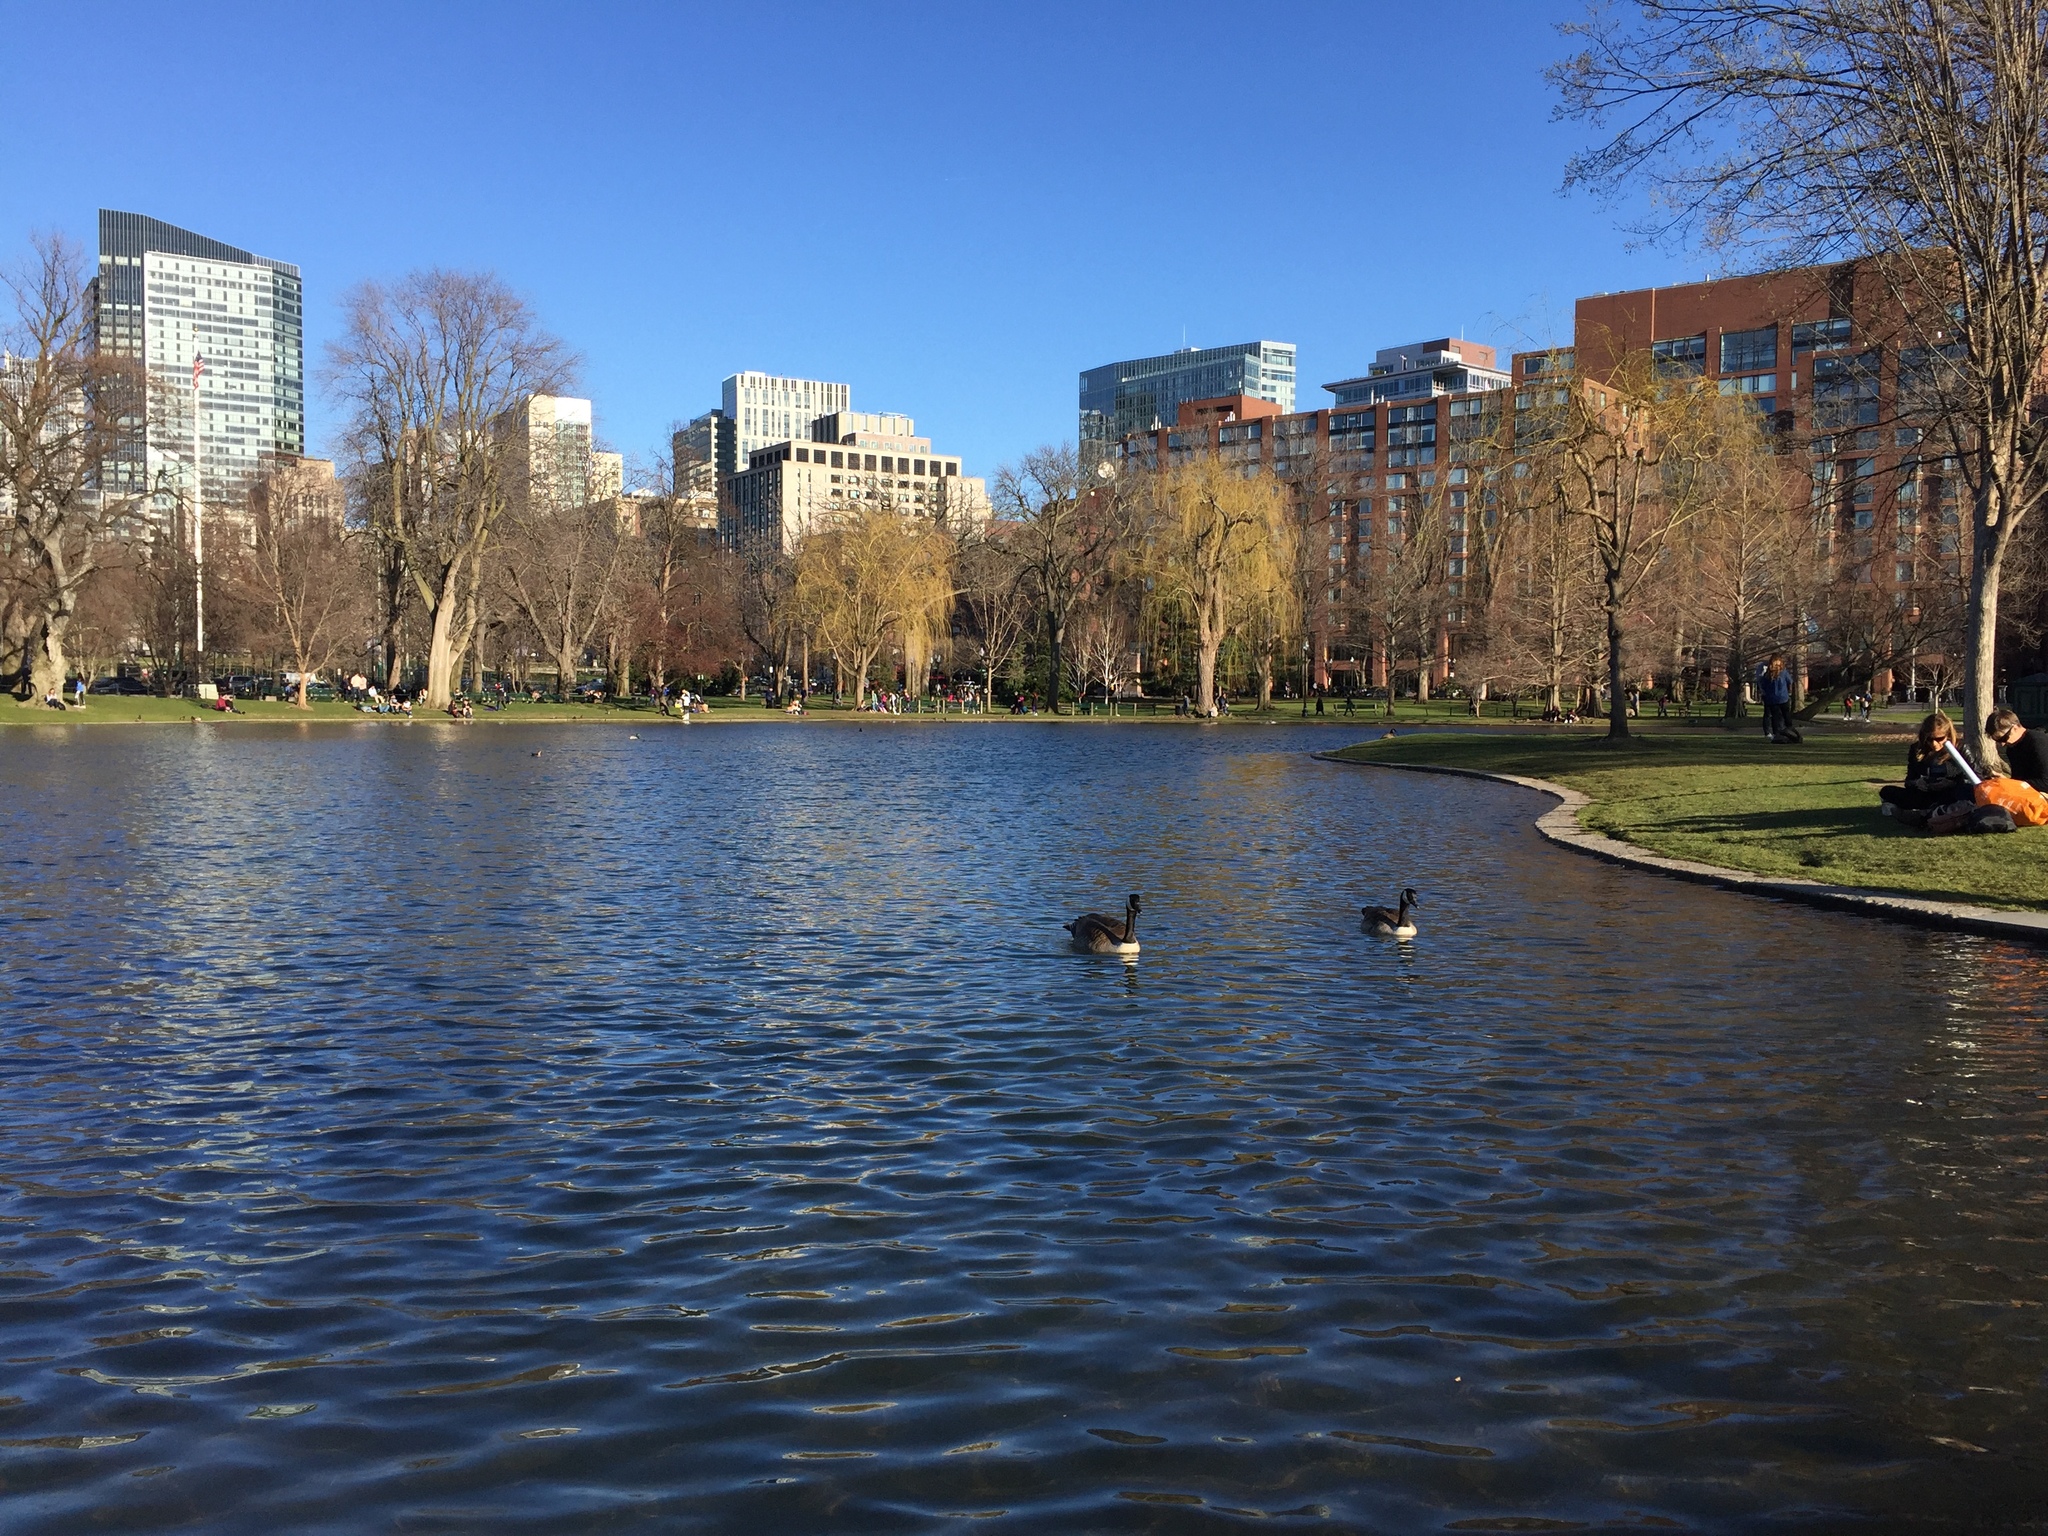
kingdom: Animalia
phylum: Chordata
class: Aves
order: Anseriformes
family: Anatidae
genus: Branta
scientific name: Branta canadensis
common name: Canada goose
